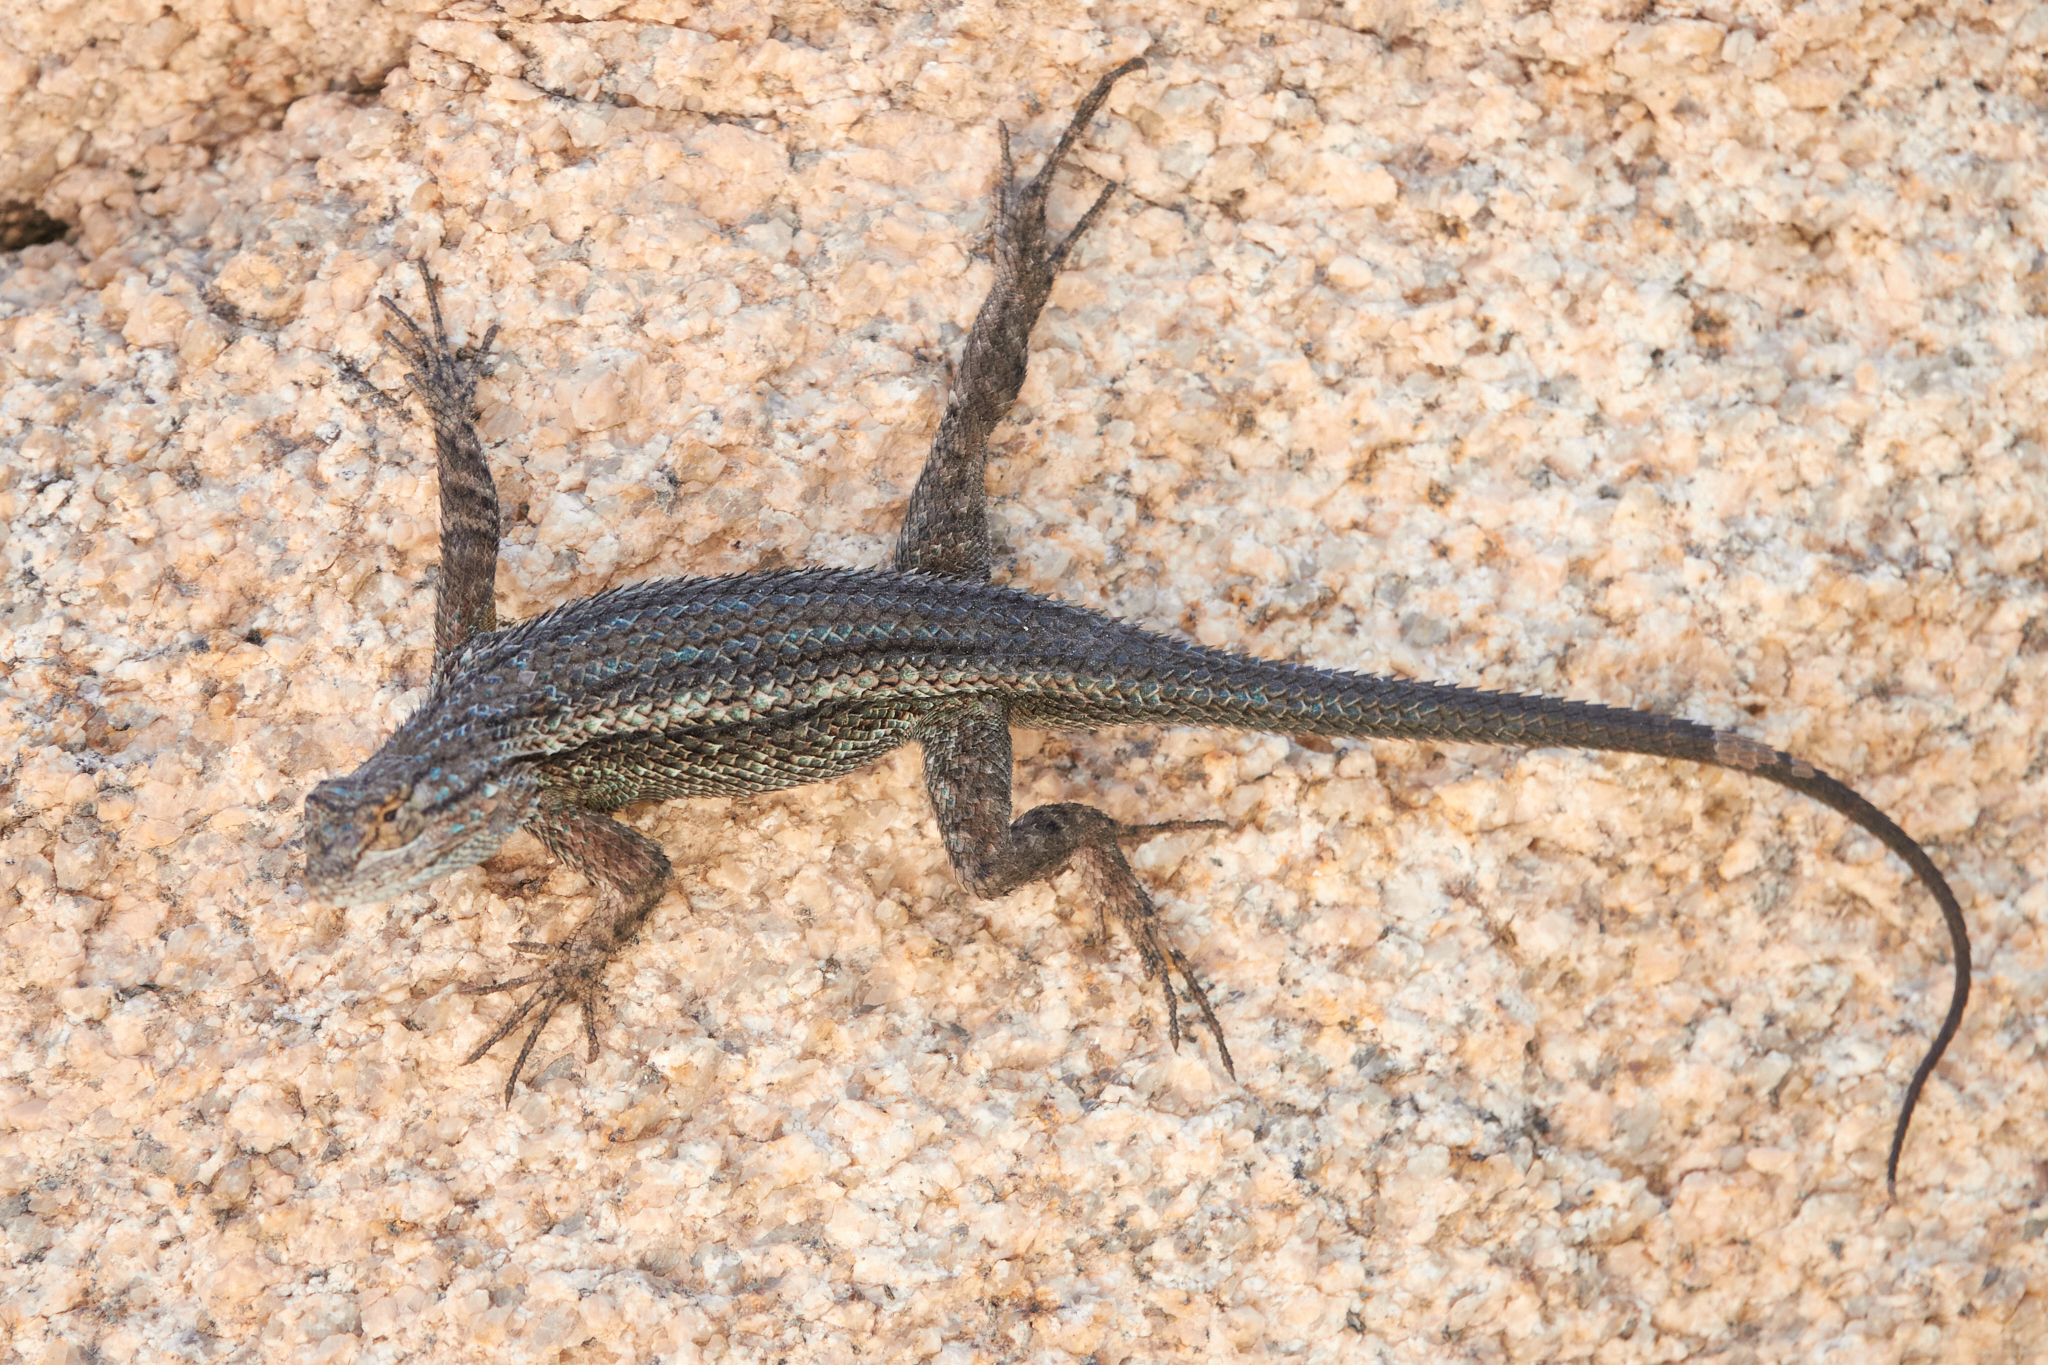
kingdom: Animalia
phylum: Chordata
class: Squamata
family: Phrynosomatidae
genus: Sceloporus
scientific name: Sceloporus occidentalis
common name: Western fence lizard
